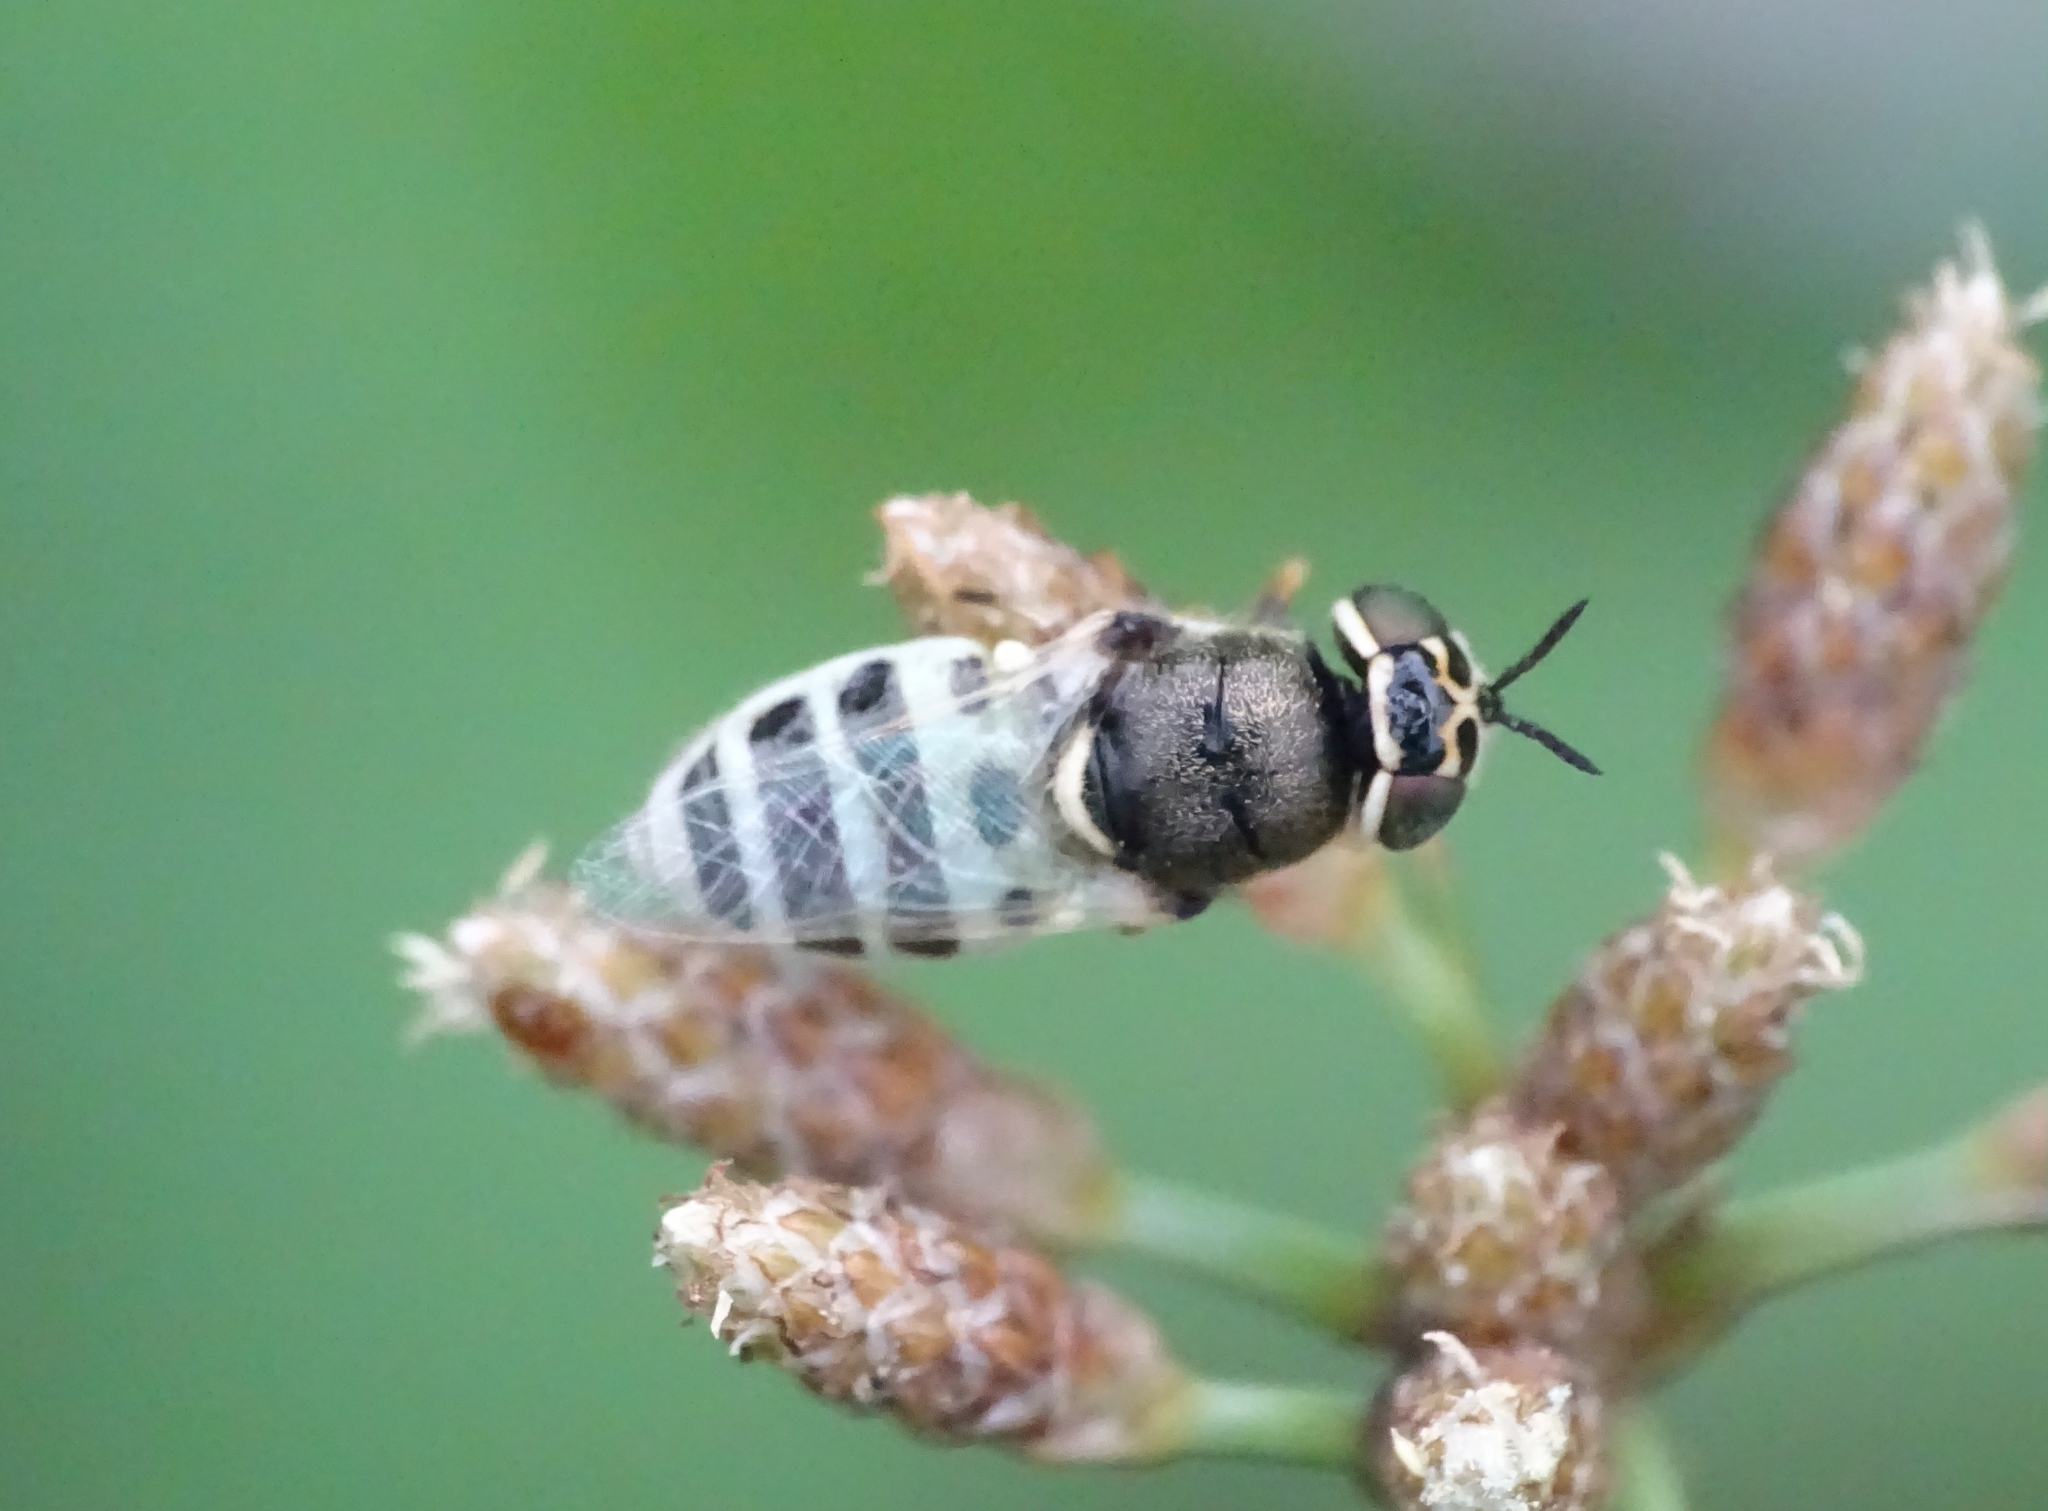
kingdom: Animalia
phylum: Arthropoda
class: Insecta
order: Diptera
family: Stratiomyidae
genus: Oplodontha
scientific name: Oplodontha minuta
